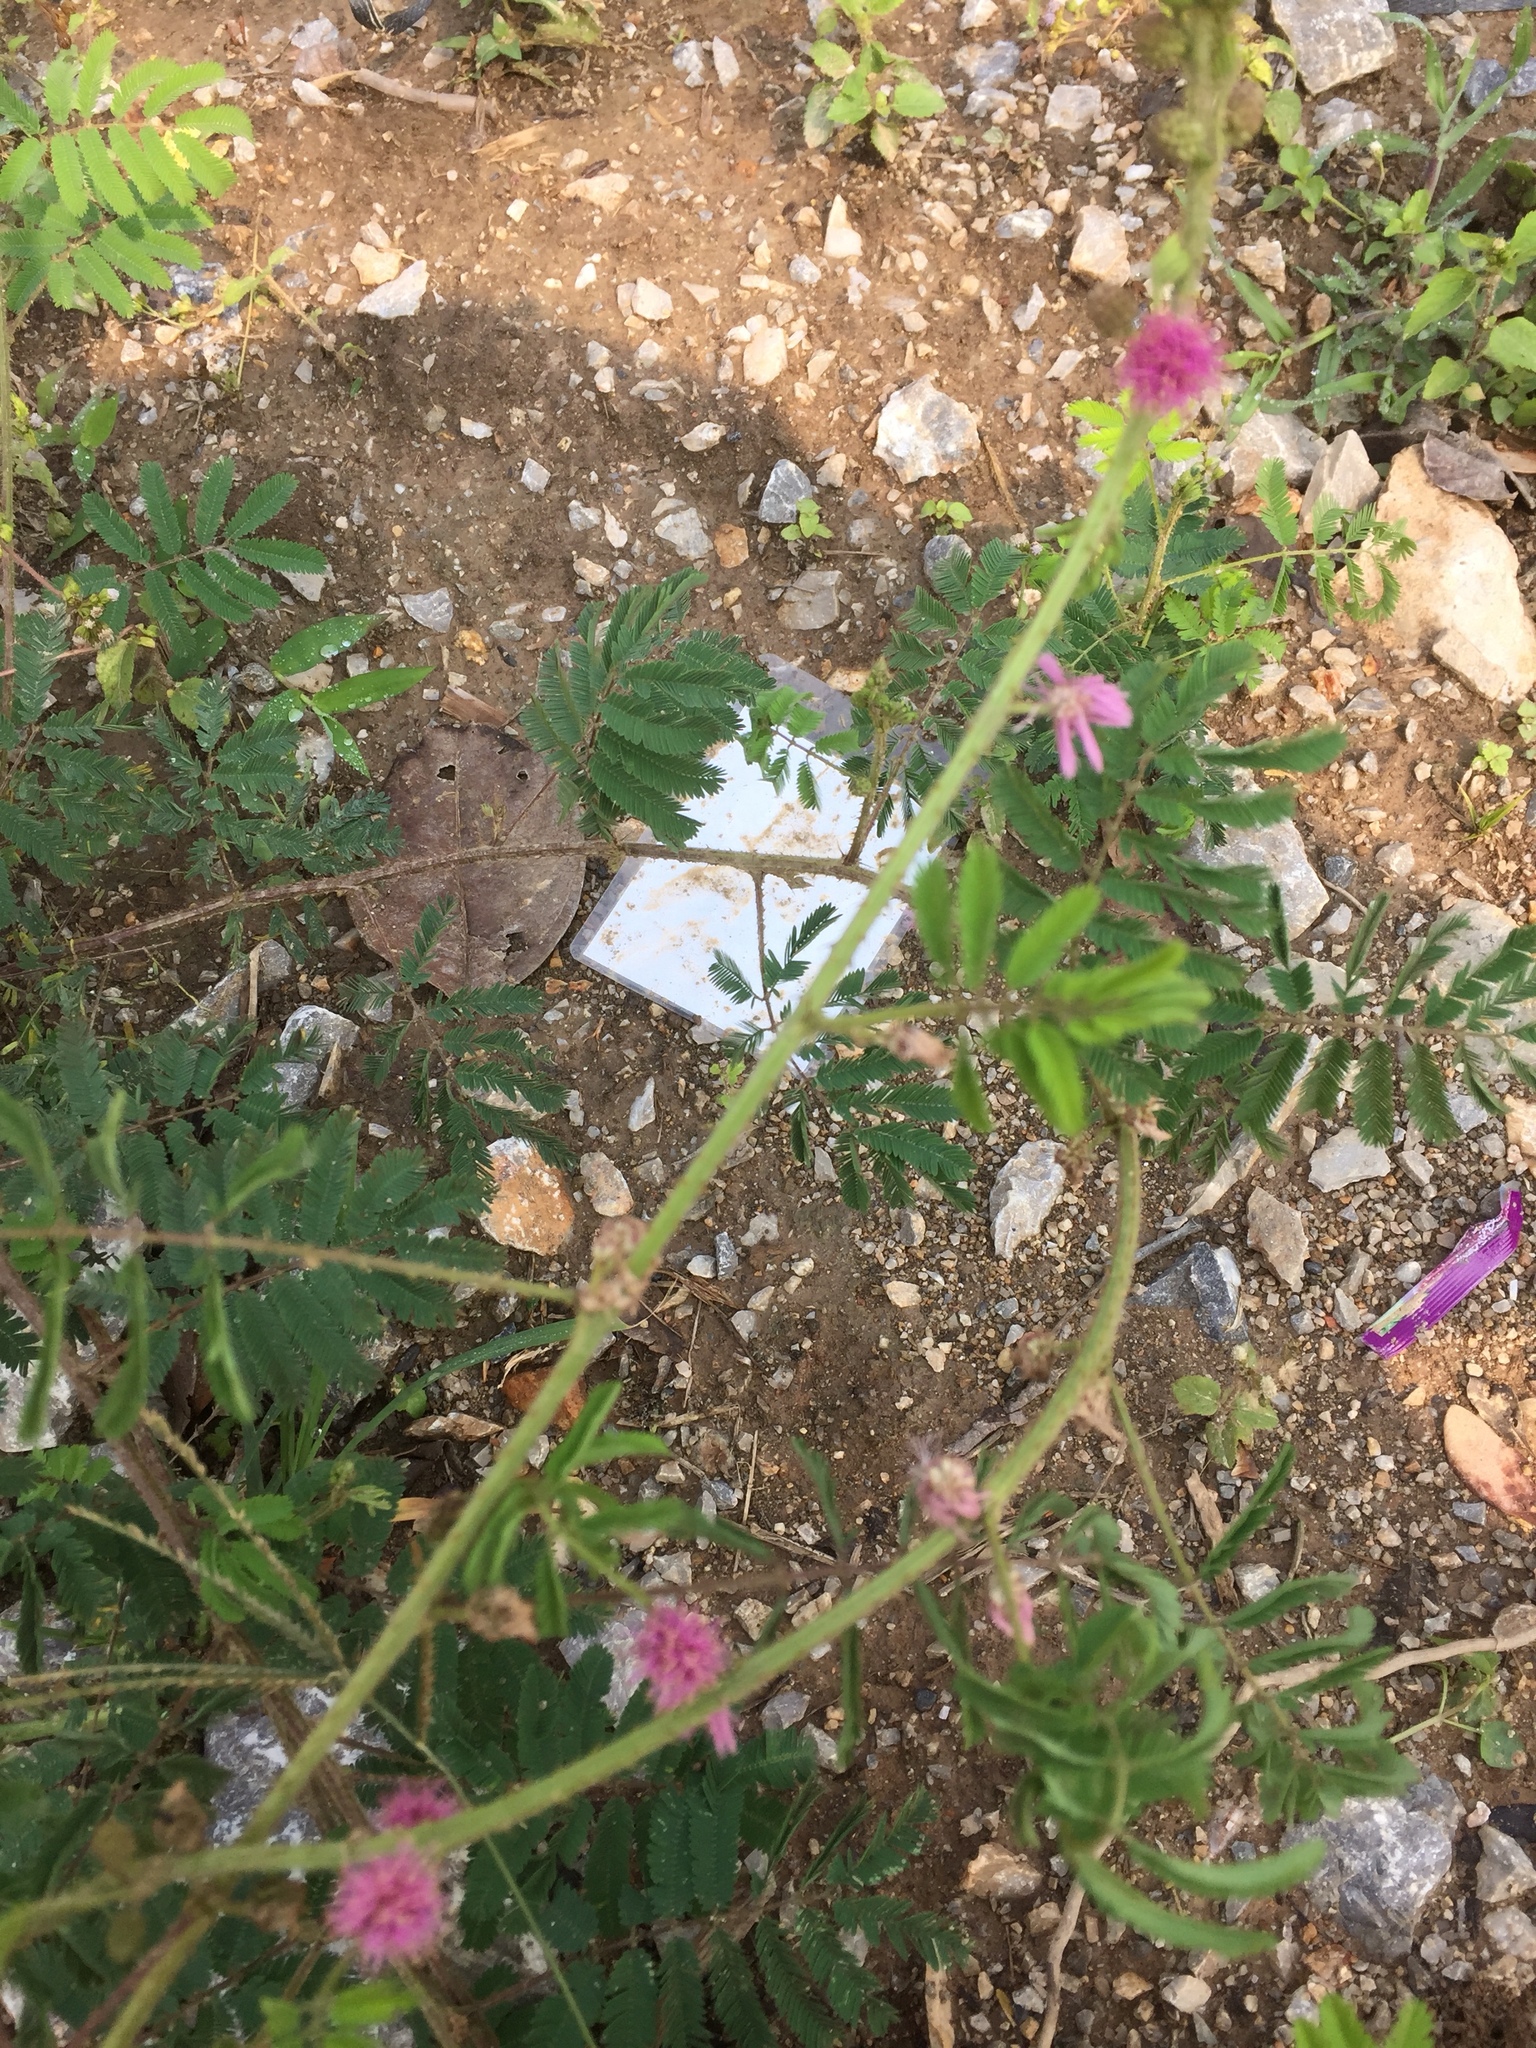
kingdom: Plantae
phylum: Tracheophyta
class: Magnoliopsida
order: Fabales
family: Fabaceae
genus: Mimosa
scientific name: Mimosa diplotricha
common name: Giant sensitive-plant
